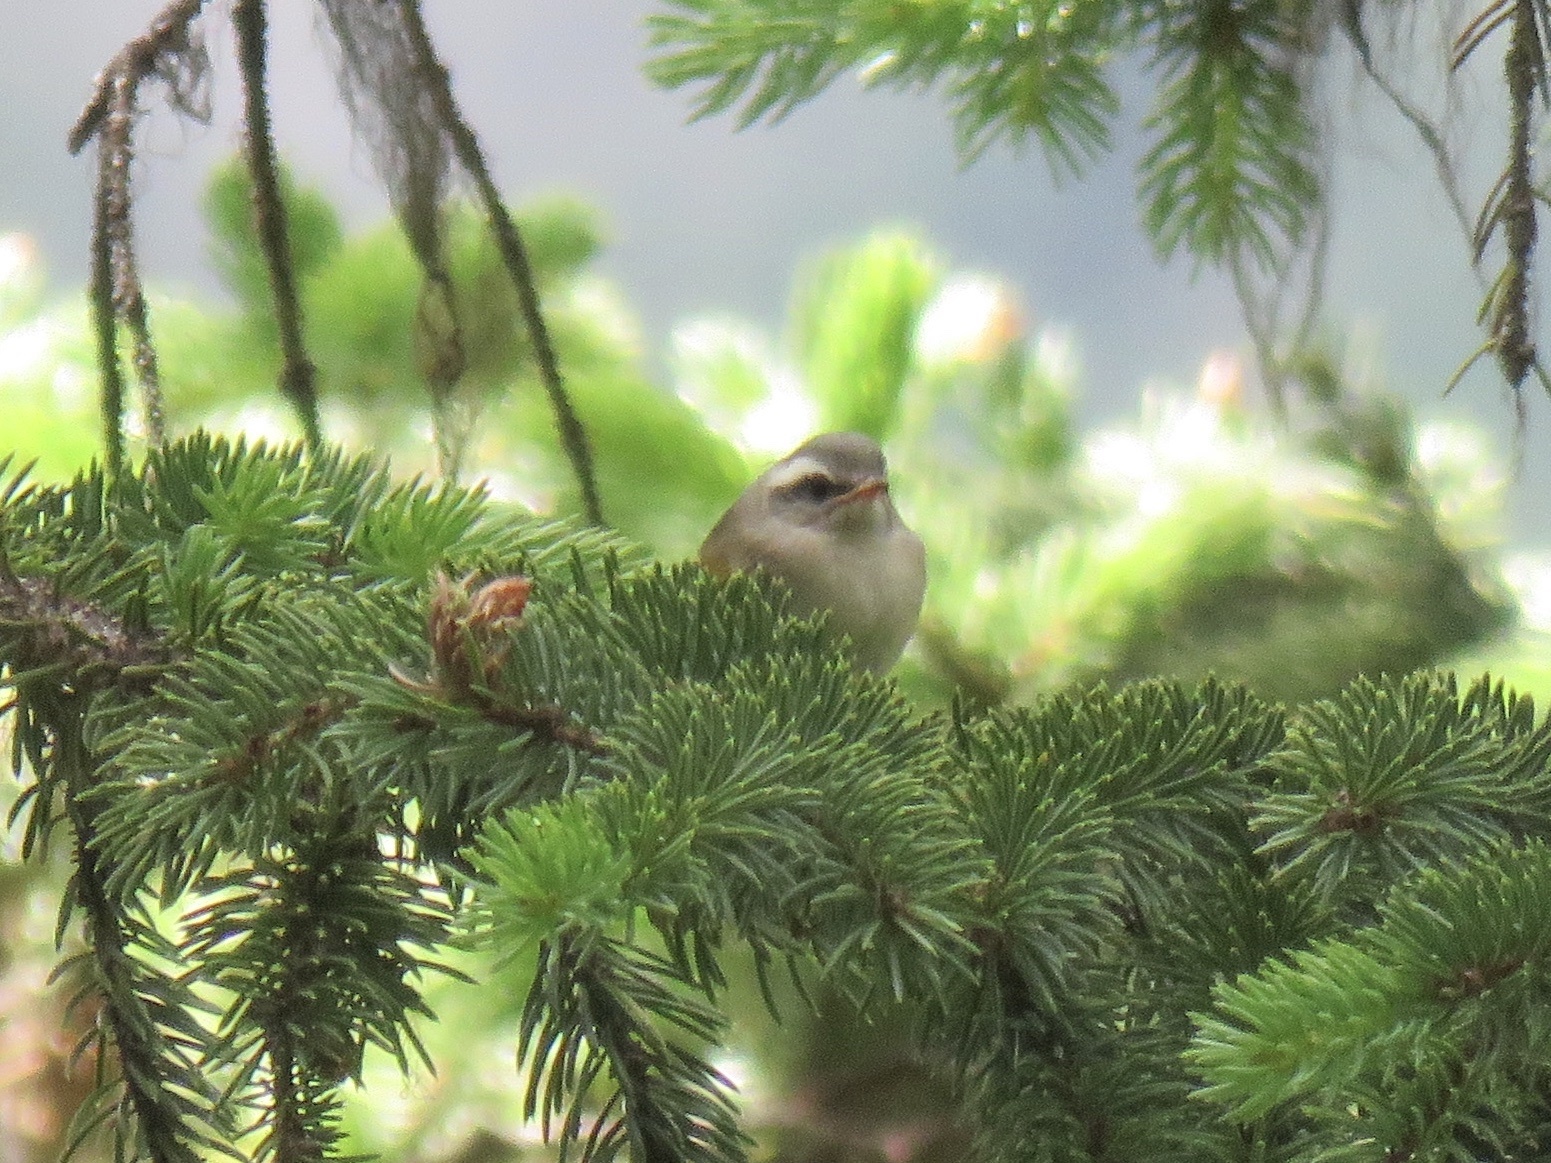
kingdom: Animalia
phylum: Chordata
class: Aves
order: Passeriformes
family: Regulidae
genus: Regulus
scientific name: Regulus satrapa
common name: Golden-crowned kinglet
